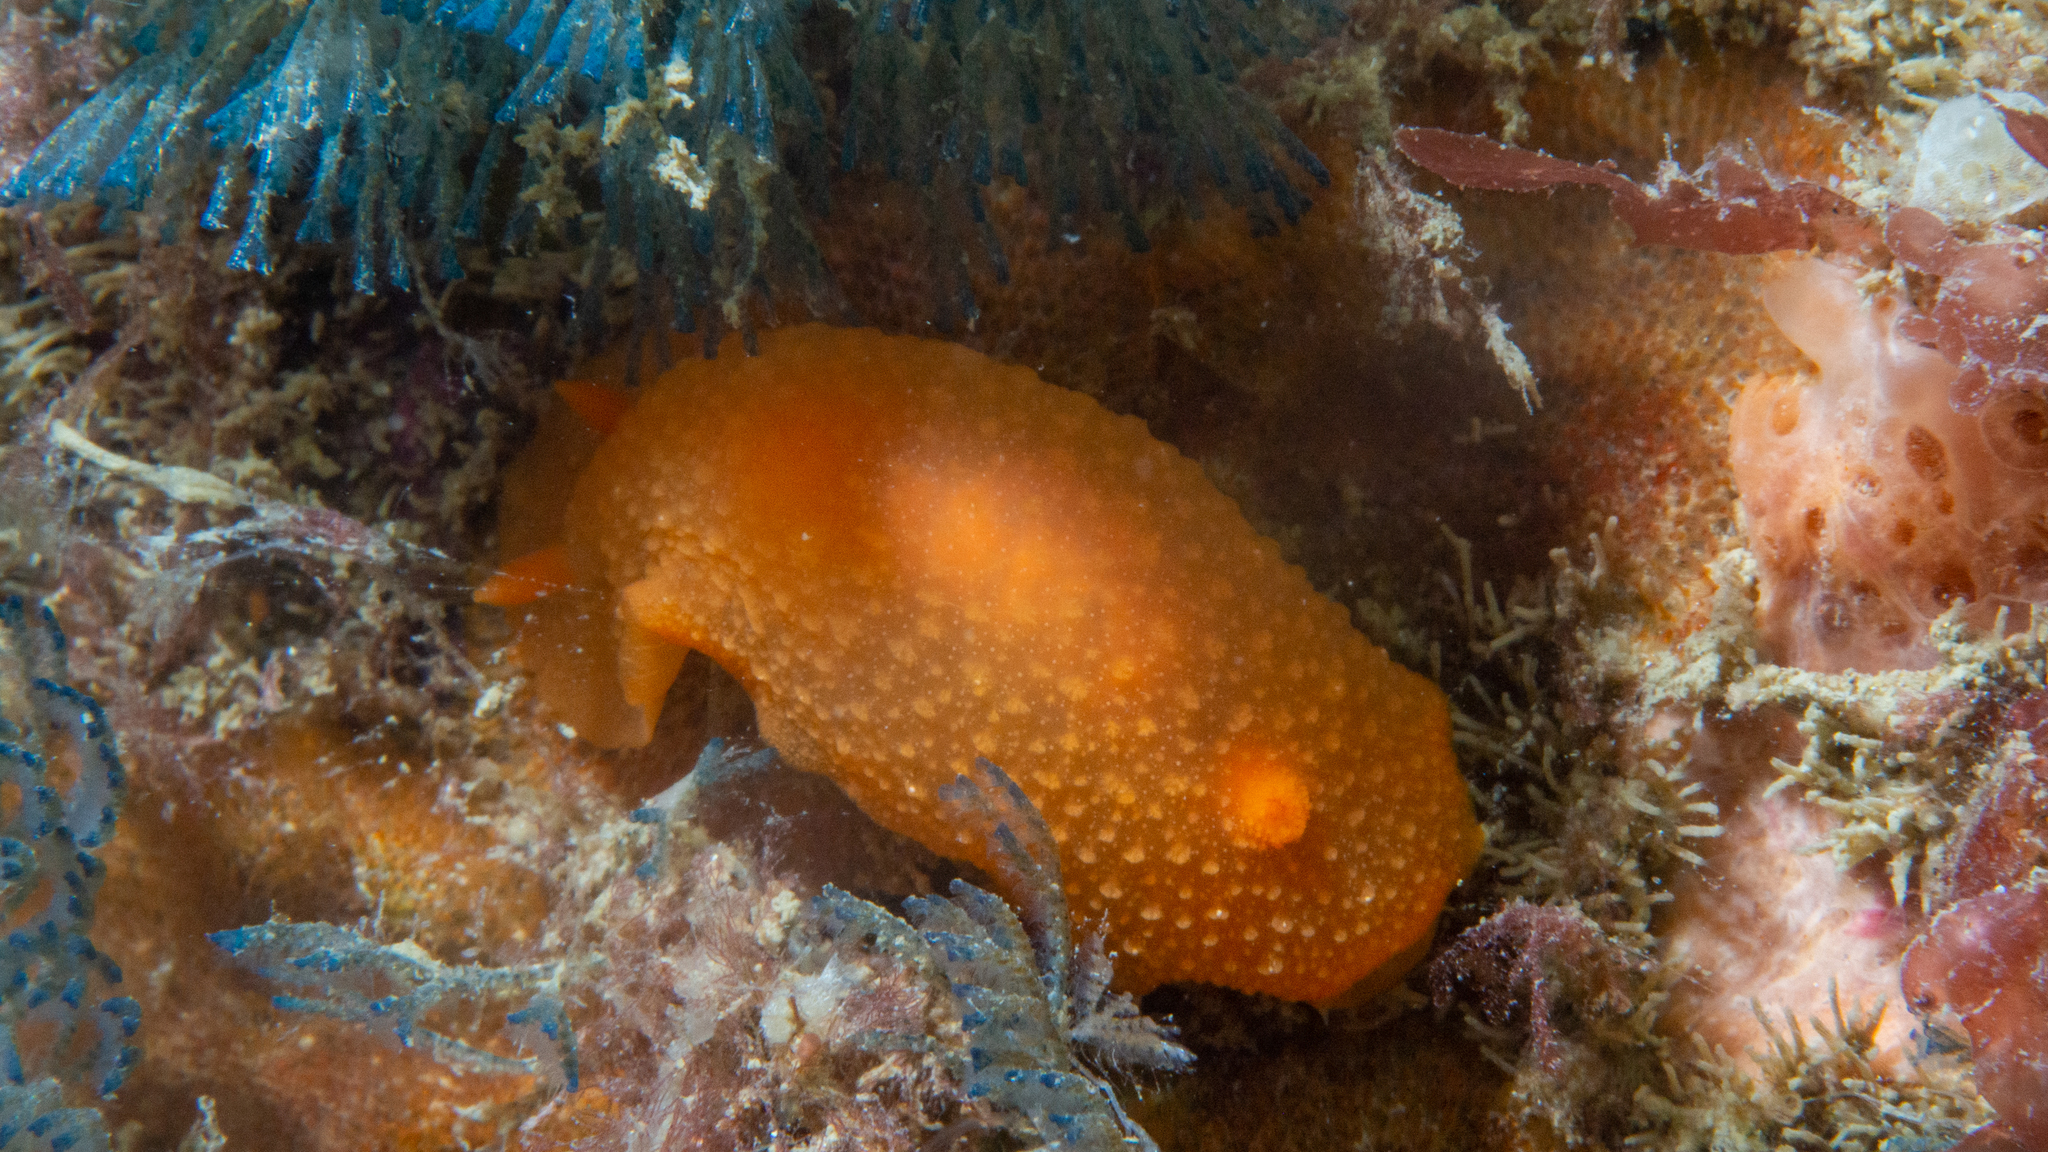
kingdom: Animalia
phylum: Mollusca
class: Gastropoda
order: Nudibranchia
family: Dendrodorididae
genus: Doriopsilla
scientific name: Doriopsilla carneola
